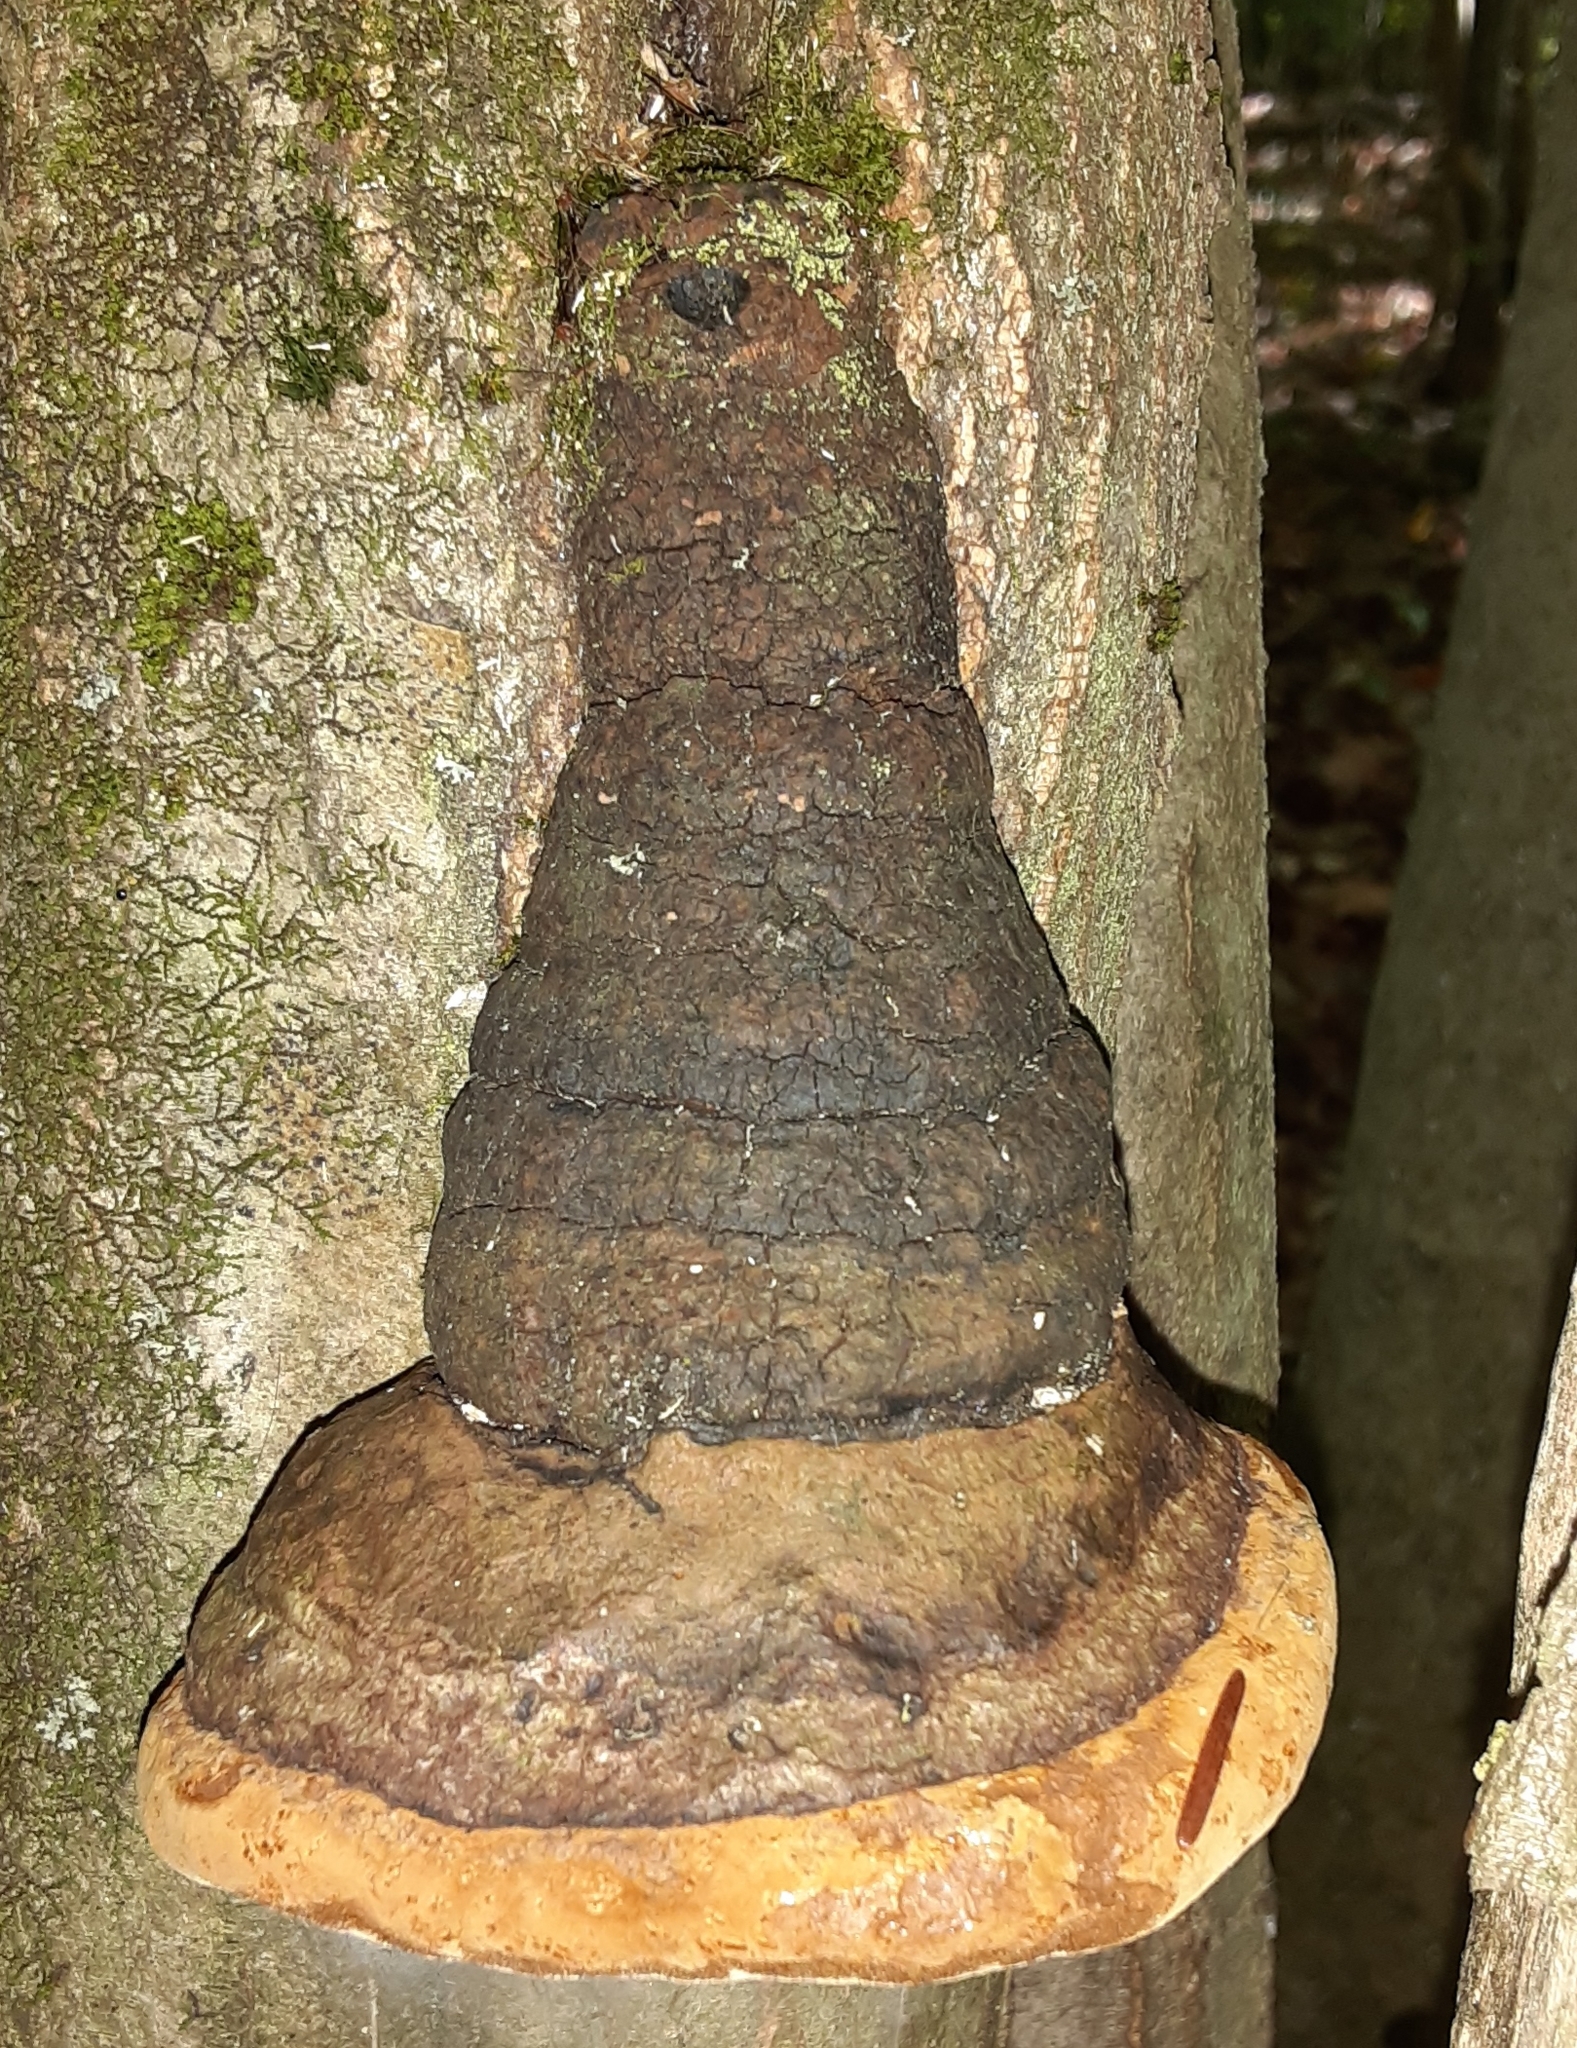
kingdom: Fungi
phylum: Basidiomycota
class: Agaricomycetes
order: Polyporales
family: Polyporaceae
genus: Fomes
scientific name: Fomes fomentarius
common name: Hoof fungus
